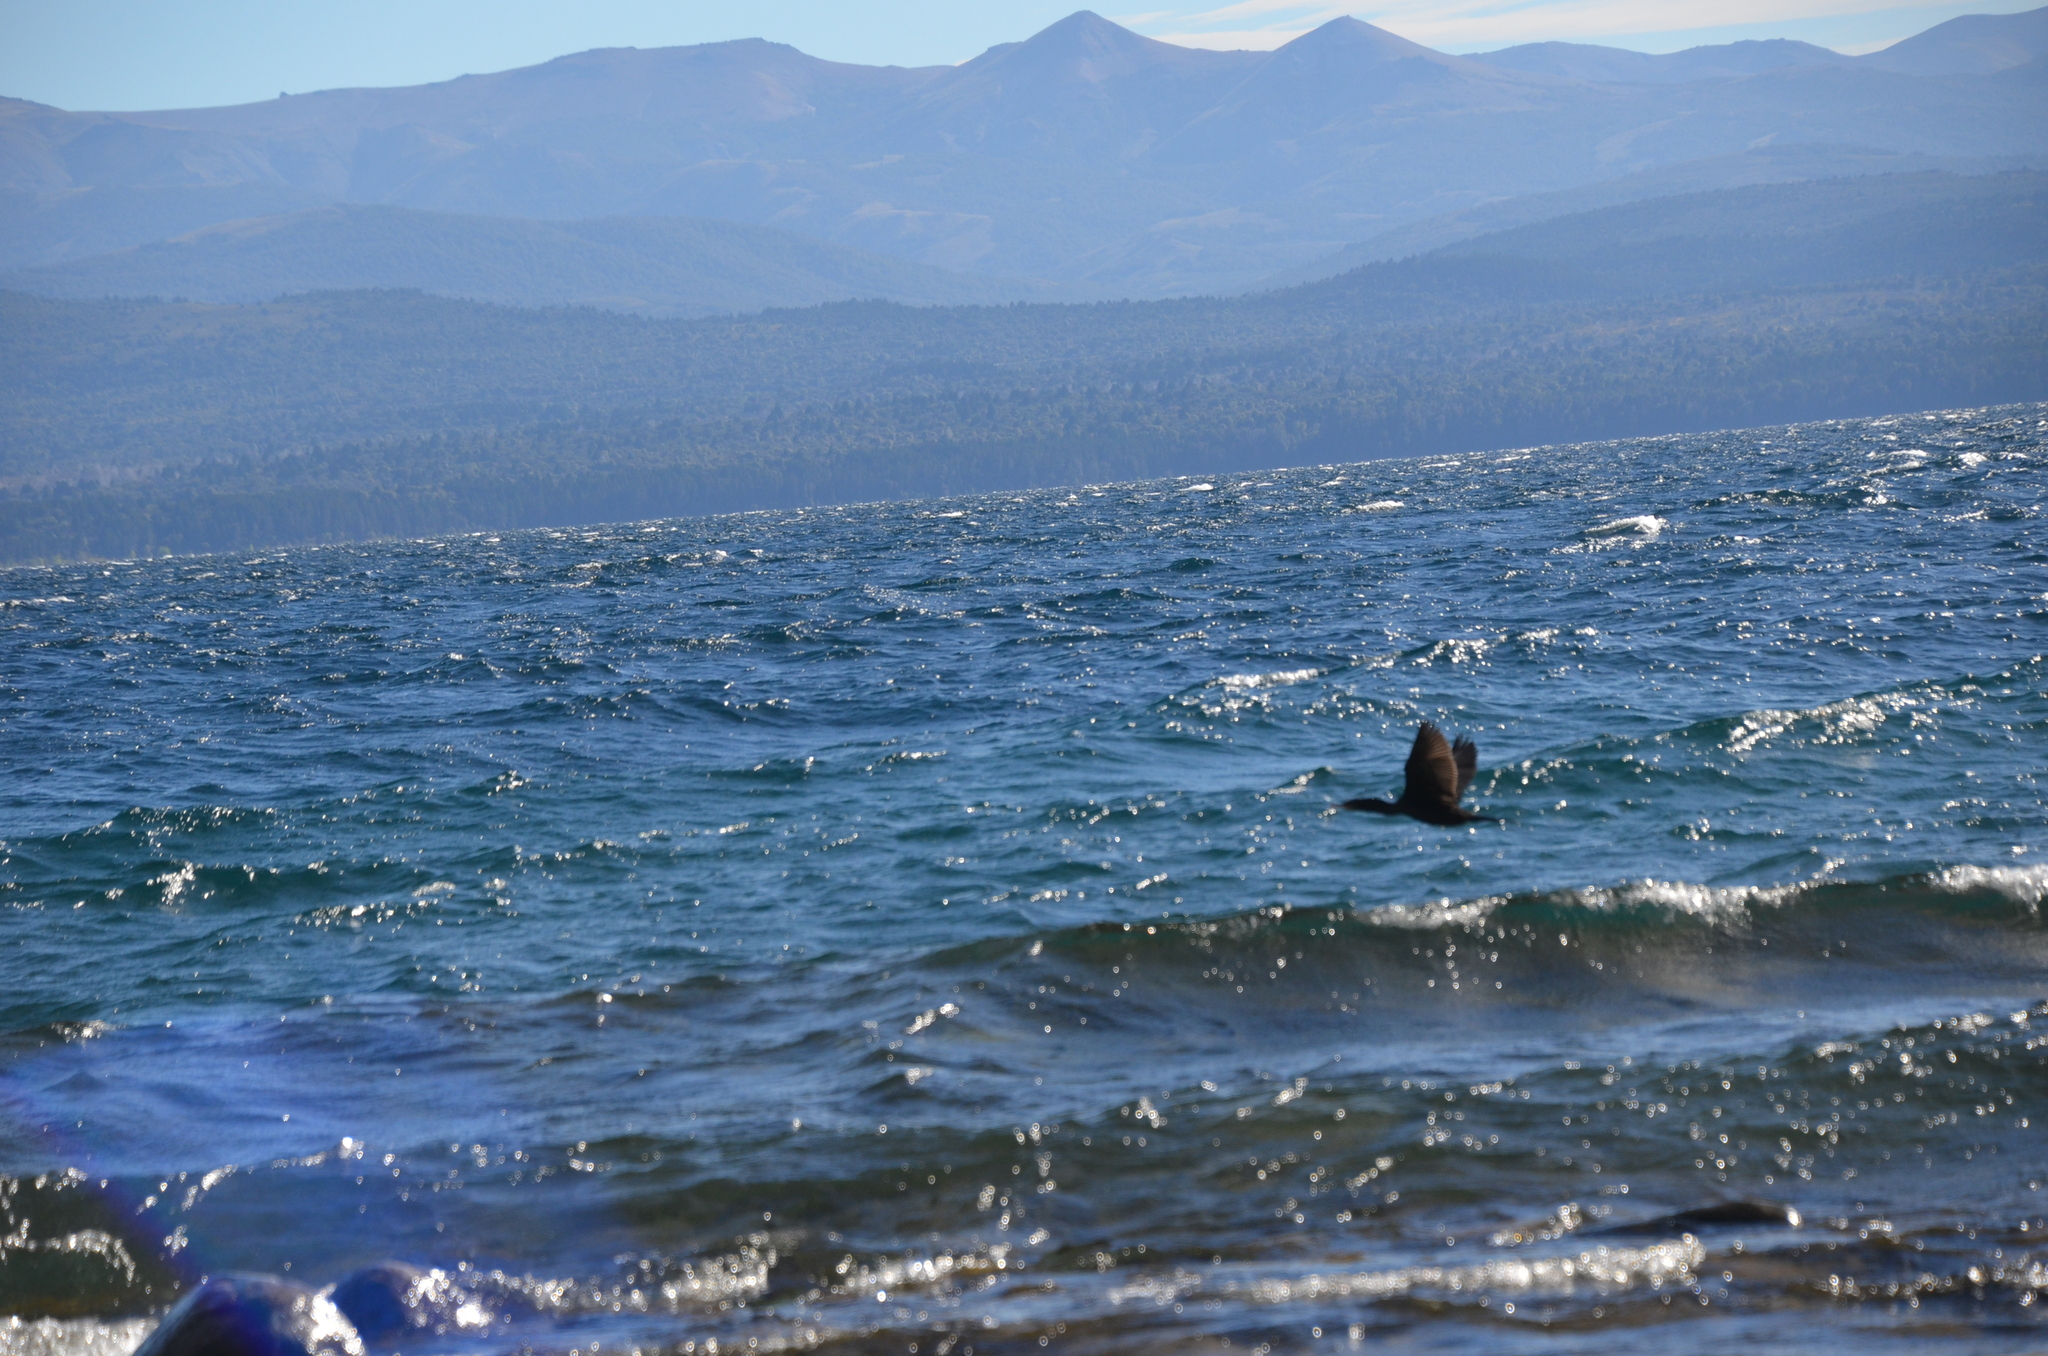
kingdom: Animalia
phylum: Chordata
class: Aves
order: Suliformes
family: Phalacrocoracidae
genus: Phalacrocorax
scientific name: Phalacrocorax brasilianus
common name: Neotropic cormorant
